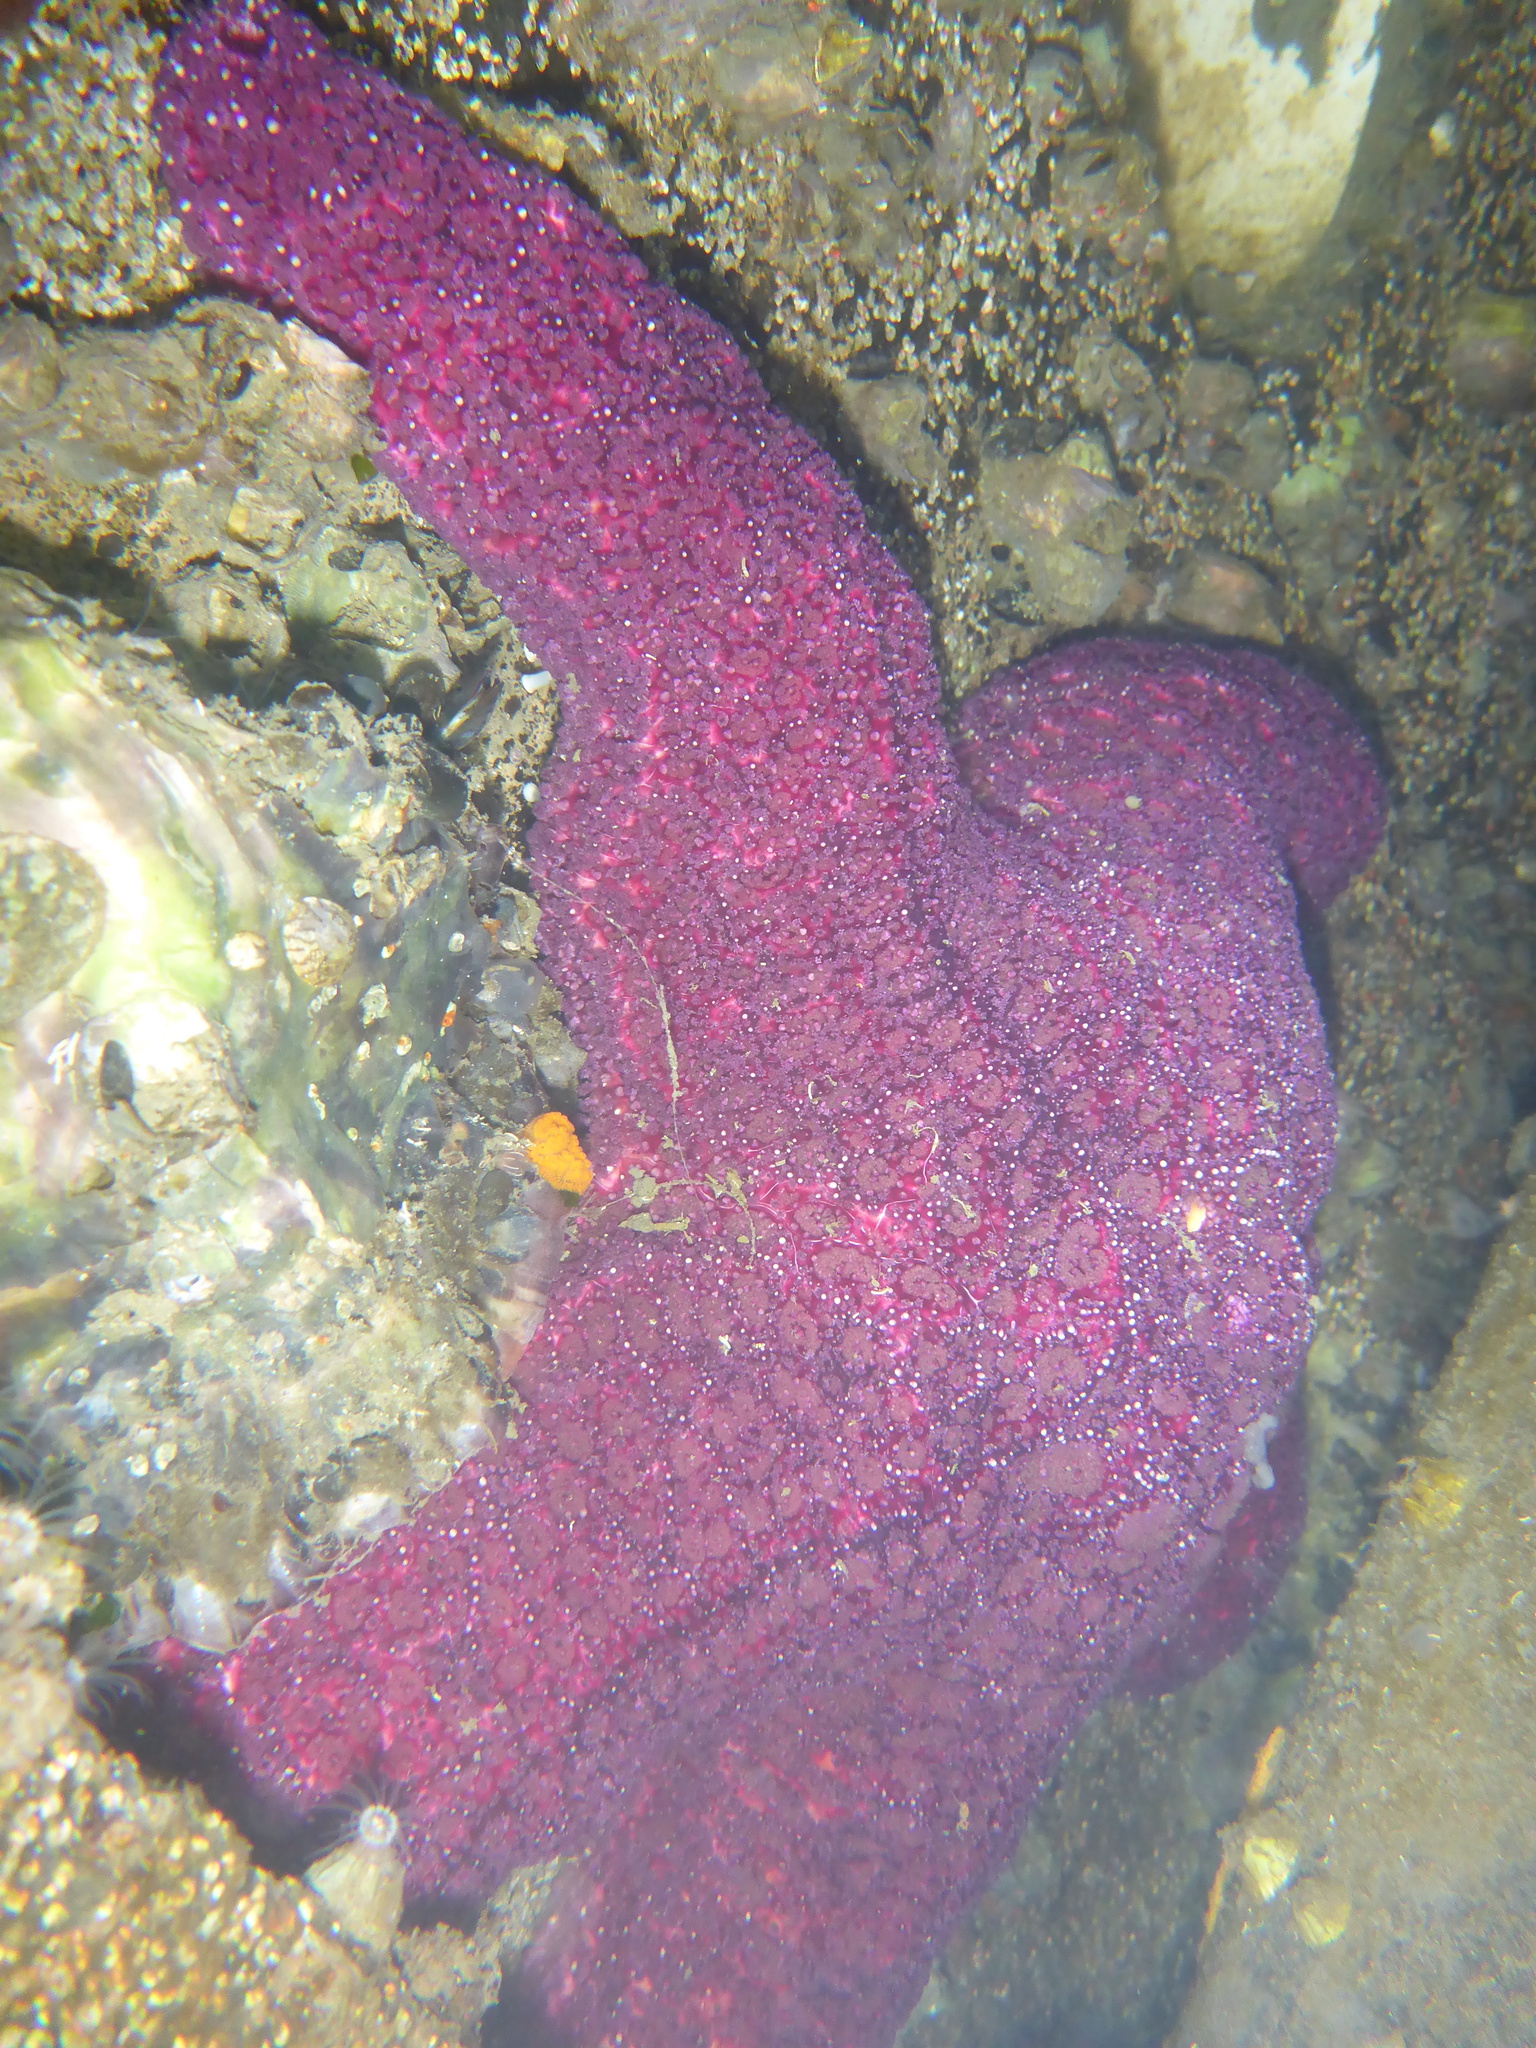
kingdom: Animalia
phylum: Echinodermata
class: Asteroidea
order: Forcipulatida
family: Asteriidae
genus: Pisaster
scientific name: Pisaster ochraceus
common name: Ochre stars
